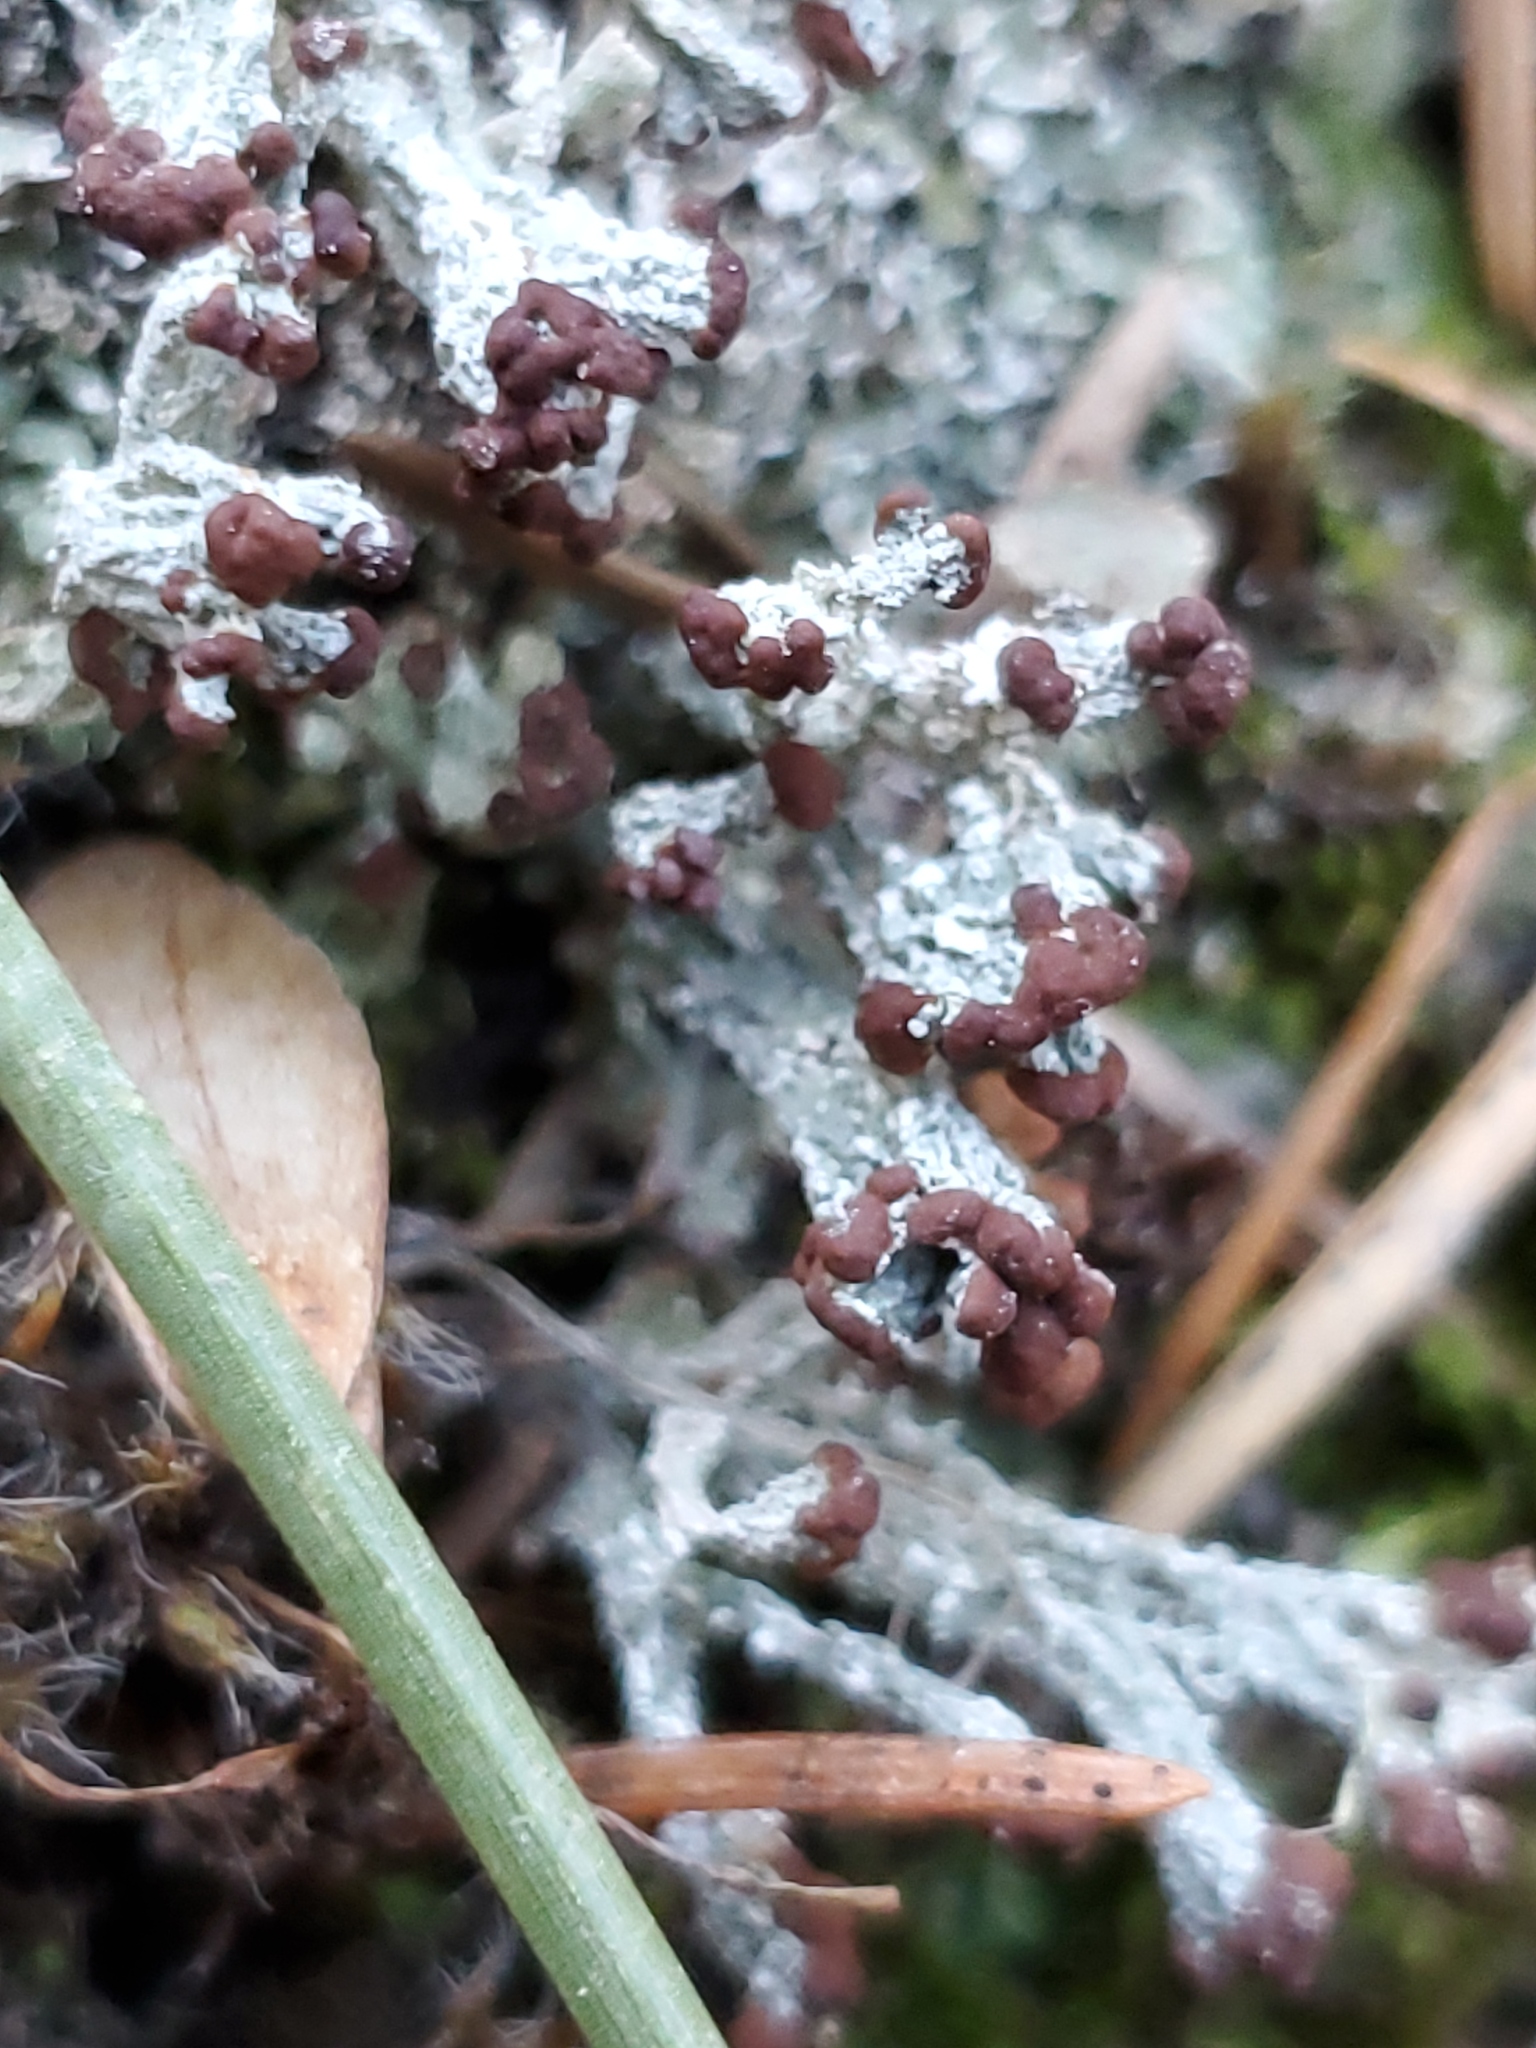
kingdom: Fungi
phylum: Ascomycota
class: Lecanoromycetes
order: Lecanorales
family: Cladoniaceae
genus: Cladonia
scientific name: Cladonia cariosa
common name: Split-peg lichen
